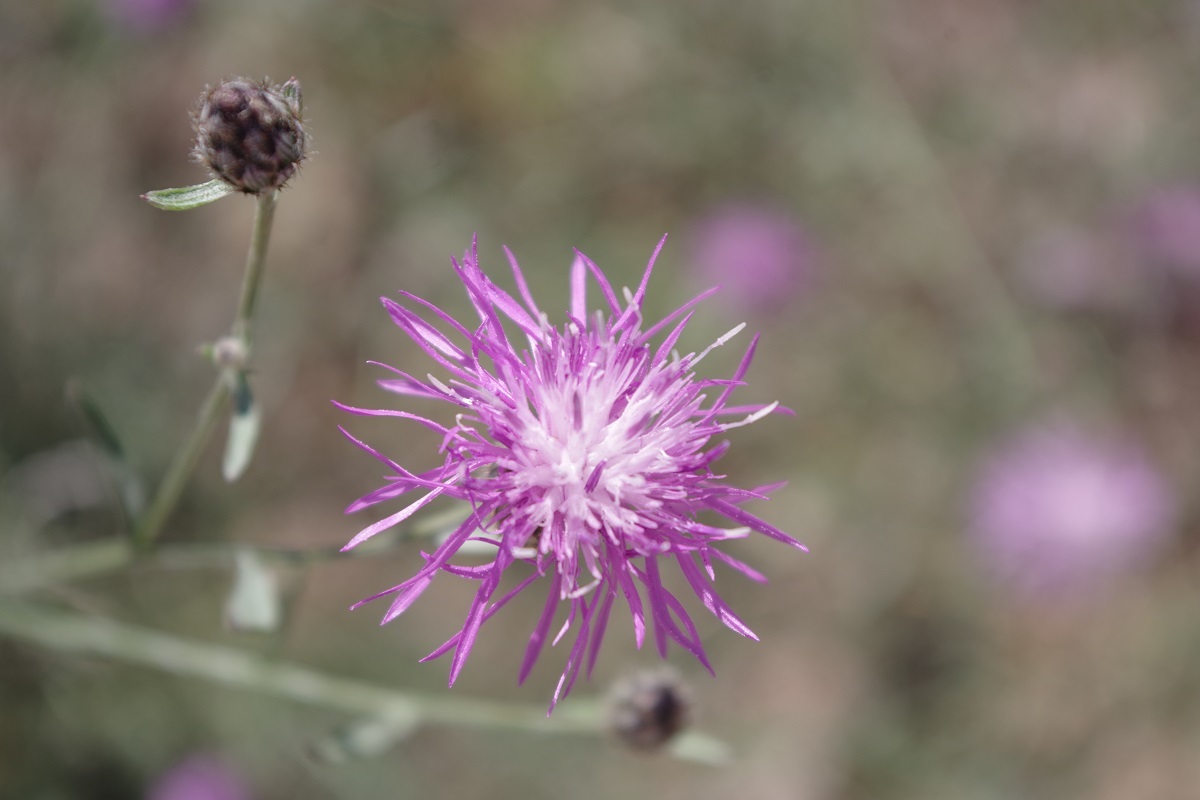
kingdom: Plantae
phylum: Tracheophyta
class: Magnoliopsida
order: Asterales
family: Asteraceae
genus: Centaurea
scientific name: Centaurea stoebe
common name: Spotted knapweed
